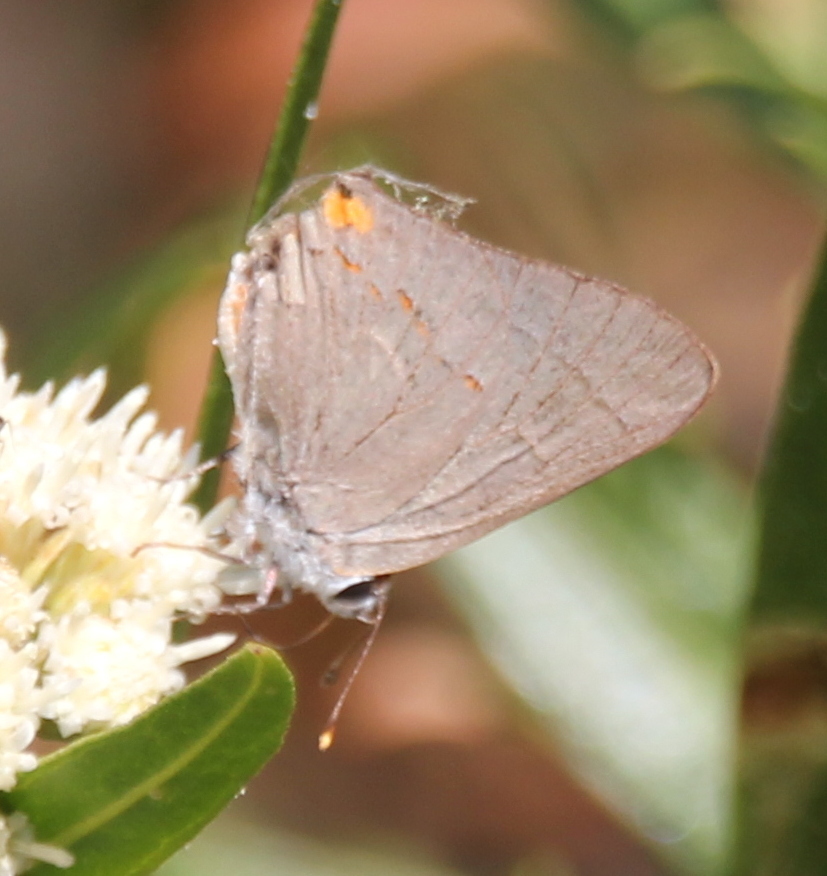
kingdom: Animalia
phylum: Arthropoda
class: Insecta
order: Lepidoptera
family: Lycaenidae
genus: Strymon
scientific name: Strymon melinus
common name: Gray hairstreak
